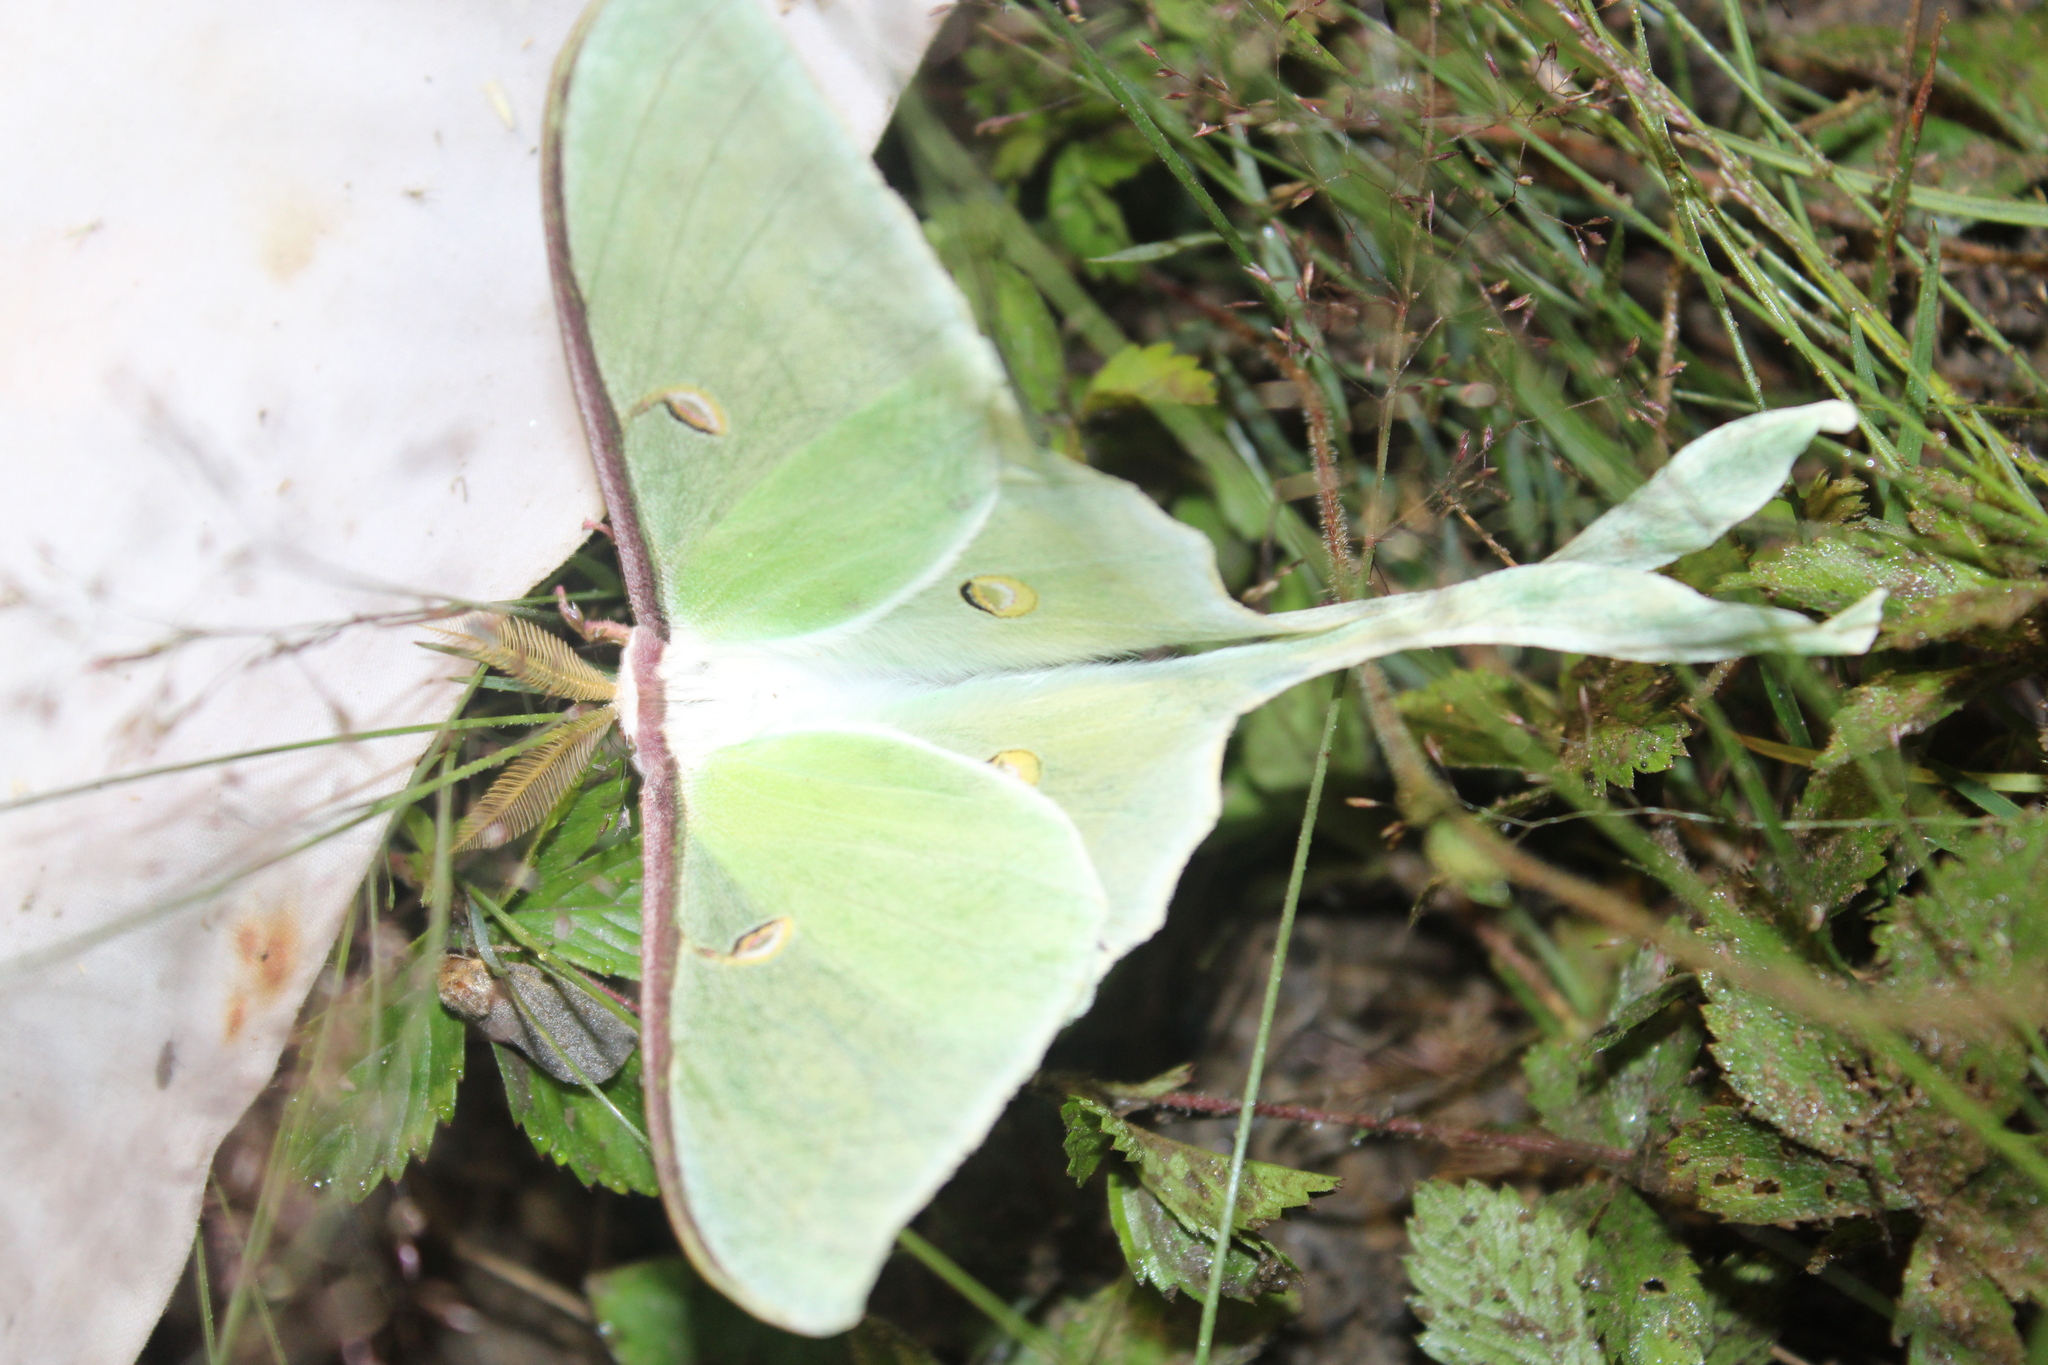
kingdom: Animalia
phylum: Arthropoda
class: Insecta
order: Lepidoptera
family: Saturniidae
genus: Actias
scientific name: Actias luna
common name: Luna moth
